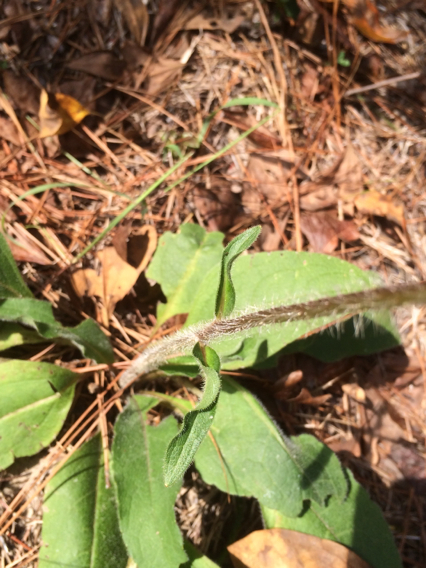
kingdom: Plantae
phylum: Tracheophyta
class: Magnoliopsida
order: Asterales
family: Asteraceae
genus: Silphium
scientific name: Silphium radula
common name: Roughleaf rosinweed
